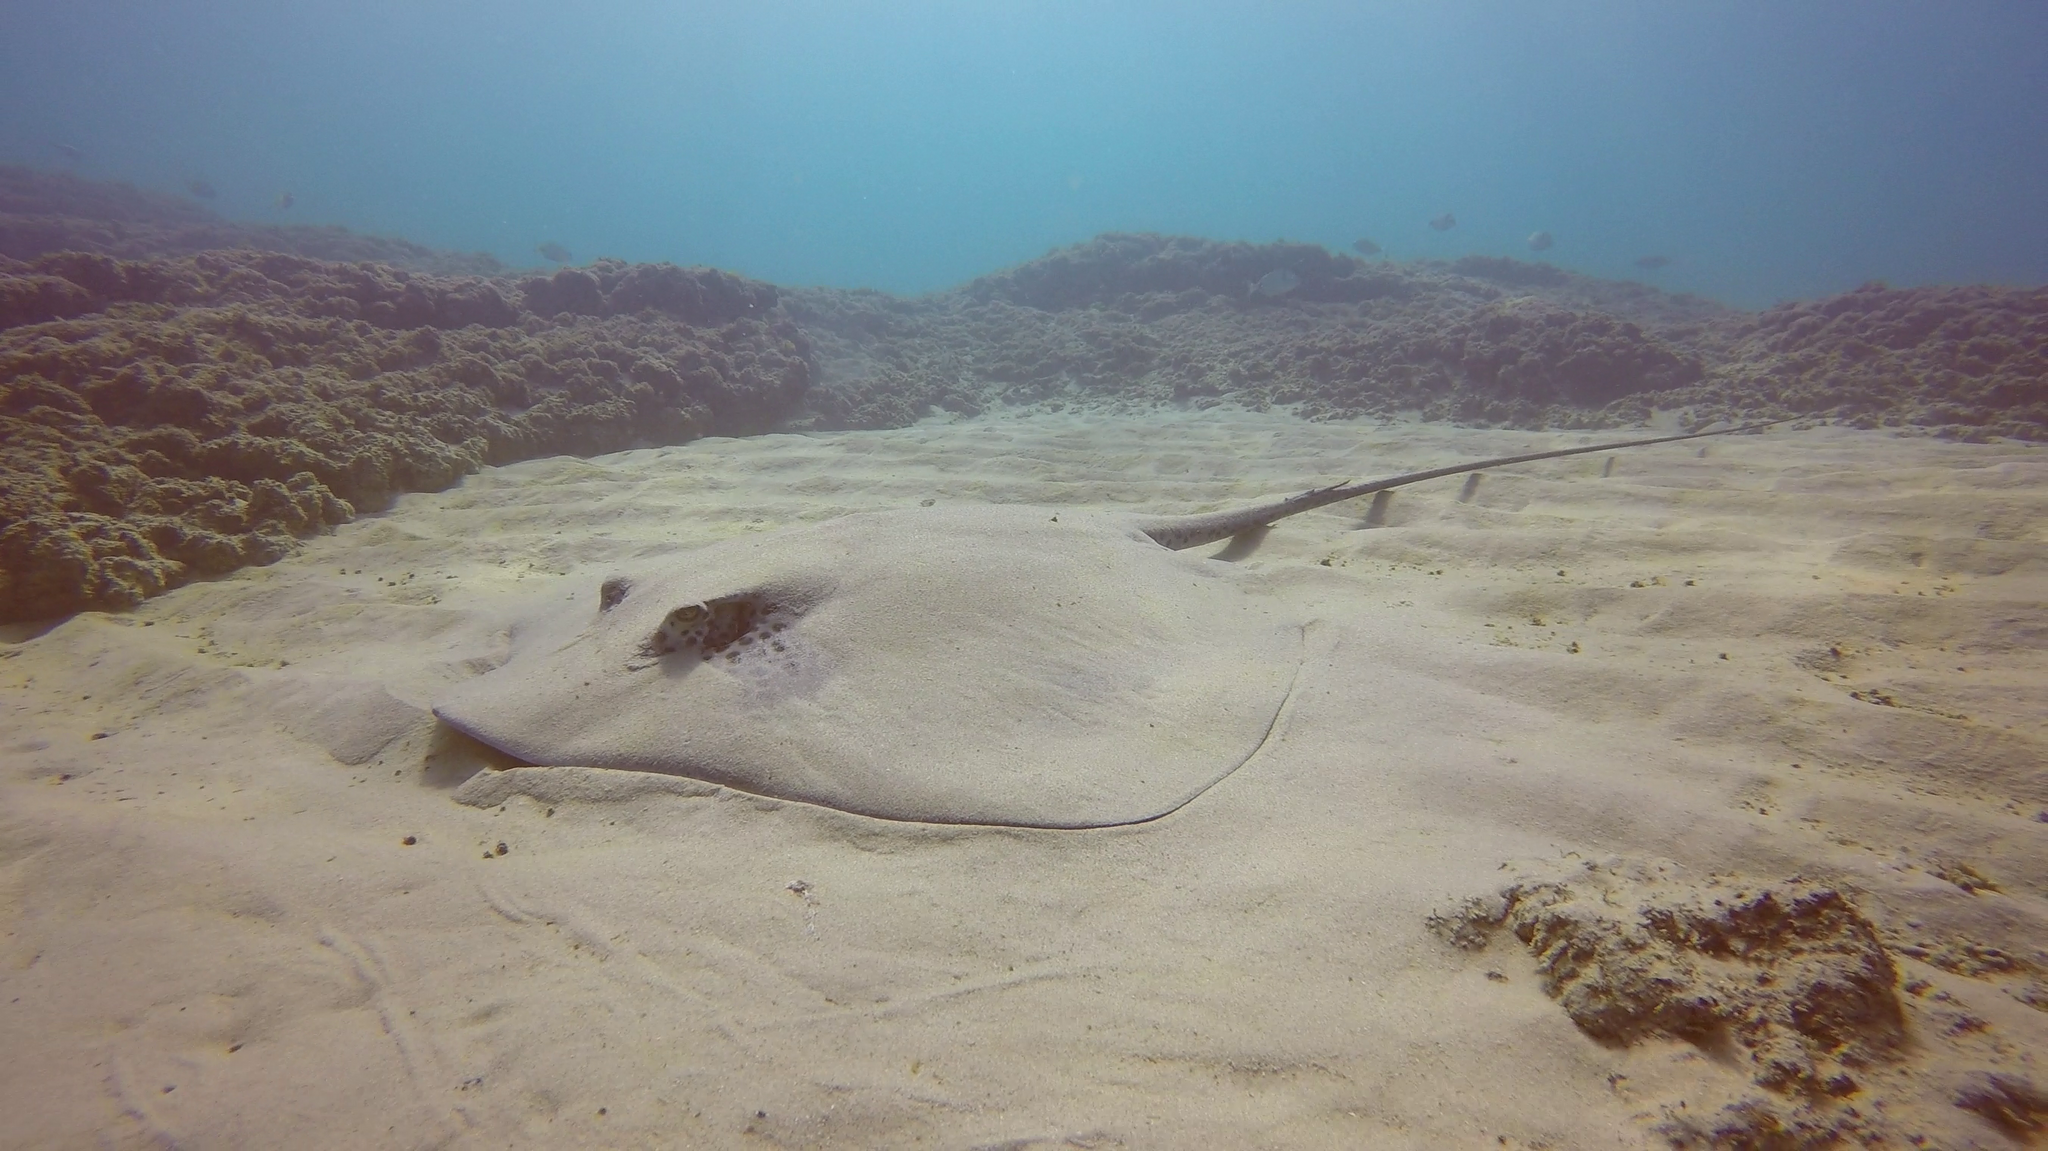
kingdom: Animalia
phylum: Chordata
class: Elasmobranchii
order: Myliobatiformes
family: Dasyatidae
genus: Himantura
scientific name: Himantura uarnak
